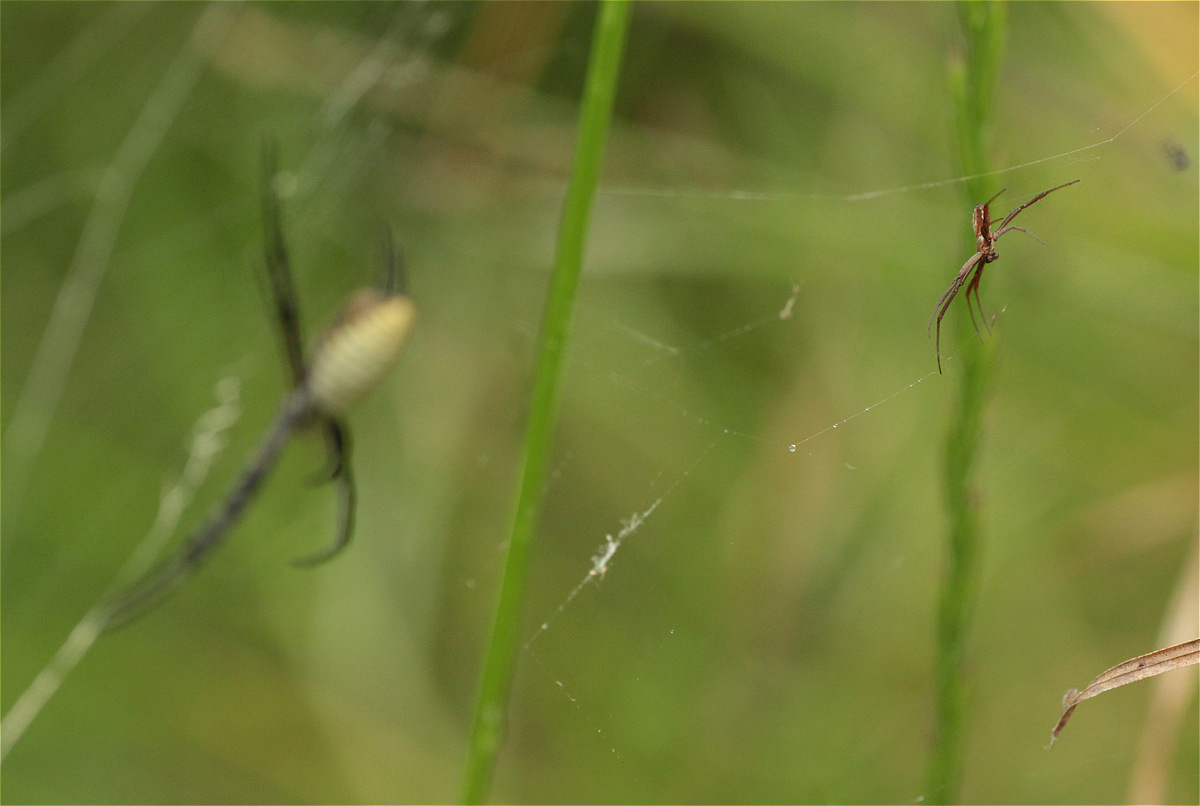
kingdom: Animalia
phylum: Arthropoda
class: Arachnida
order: Araneae
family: Araneidae
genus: Argiope
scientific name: Argiope trifasciata
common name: Banded garden spider
